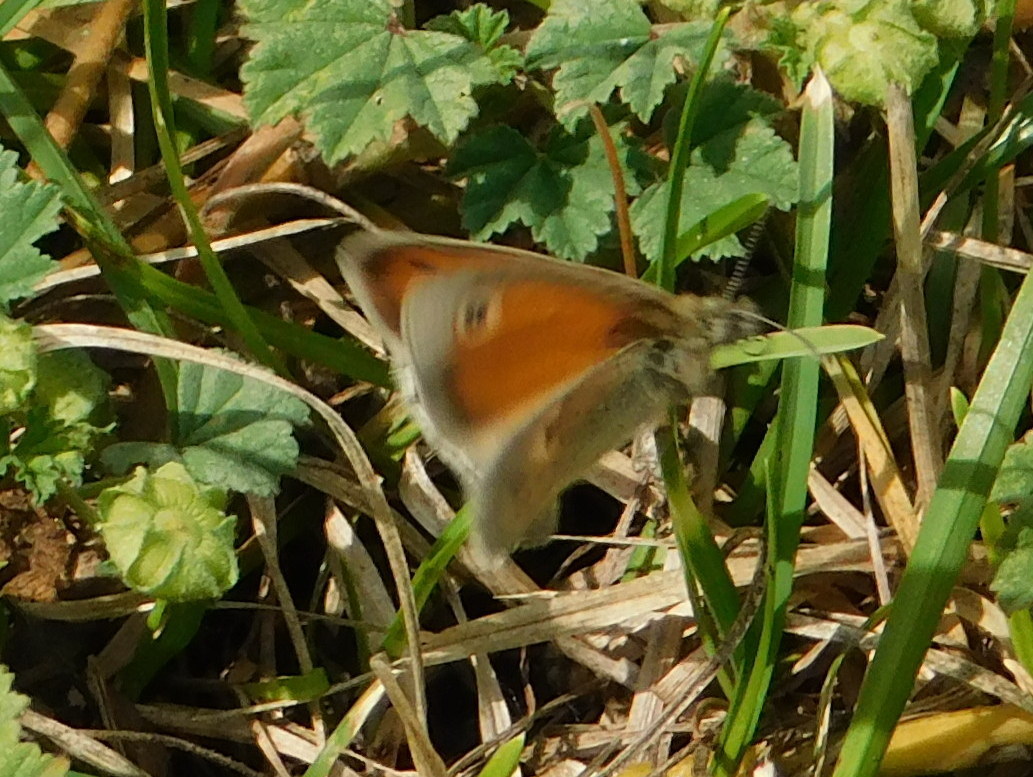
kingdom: Animalia
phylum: Arthropoda
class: Insecta
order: Lepidoptera
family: Nymphalidae
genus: Coenonympha
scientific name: Coenonympha pamphilus
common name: Small heath
